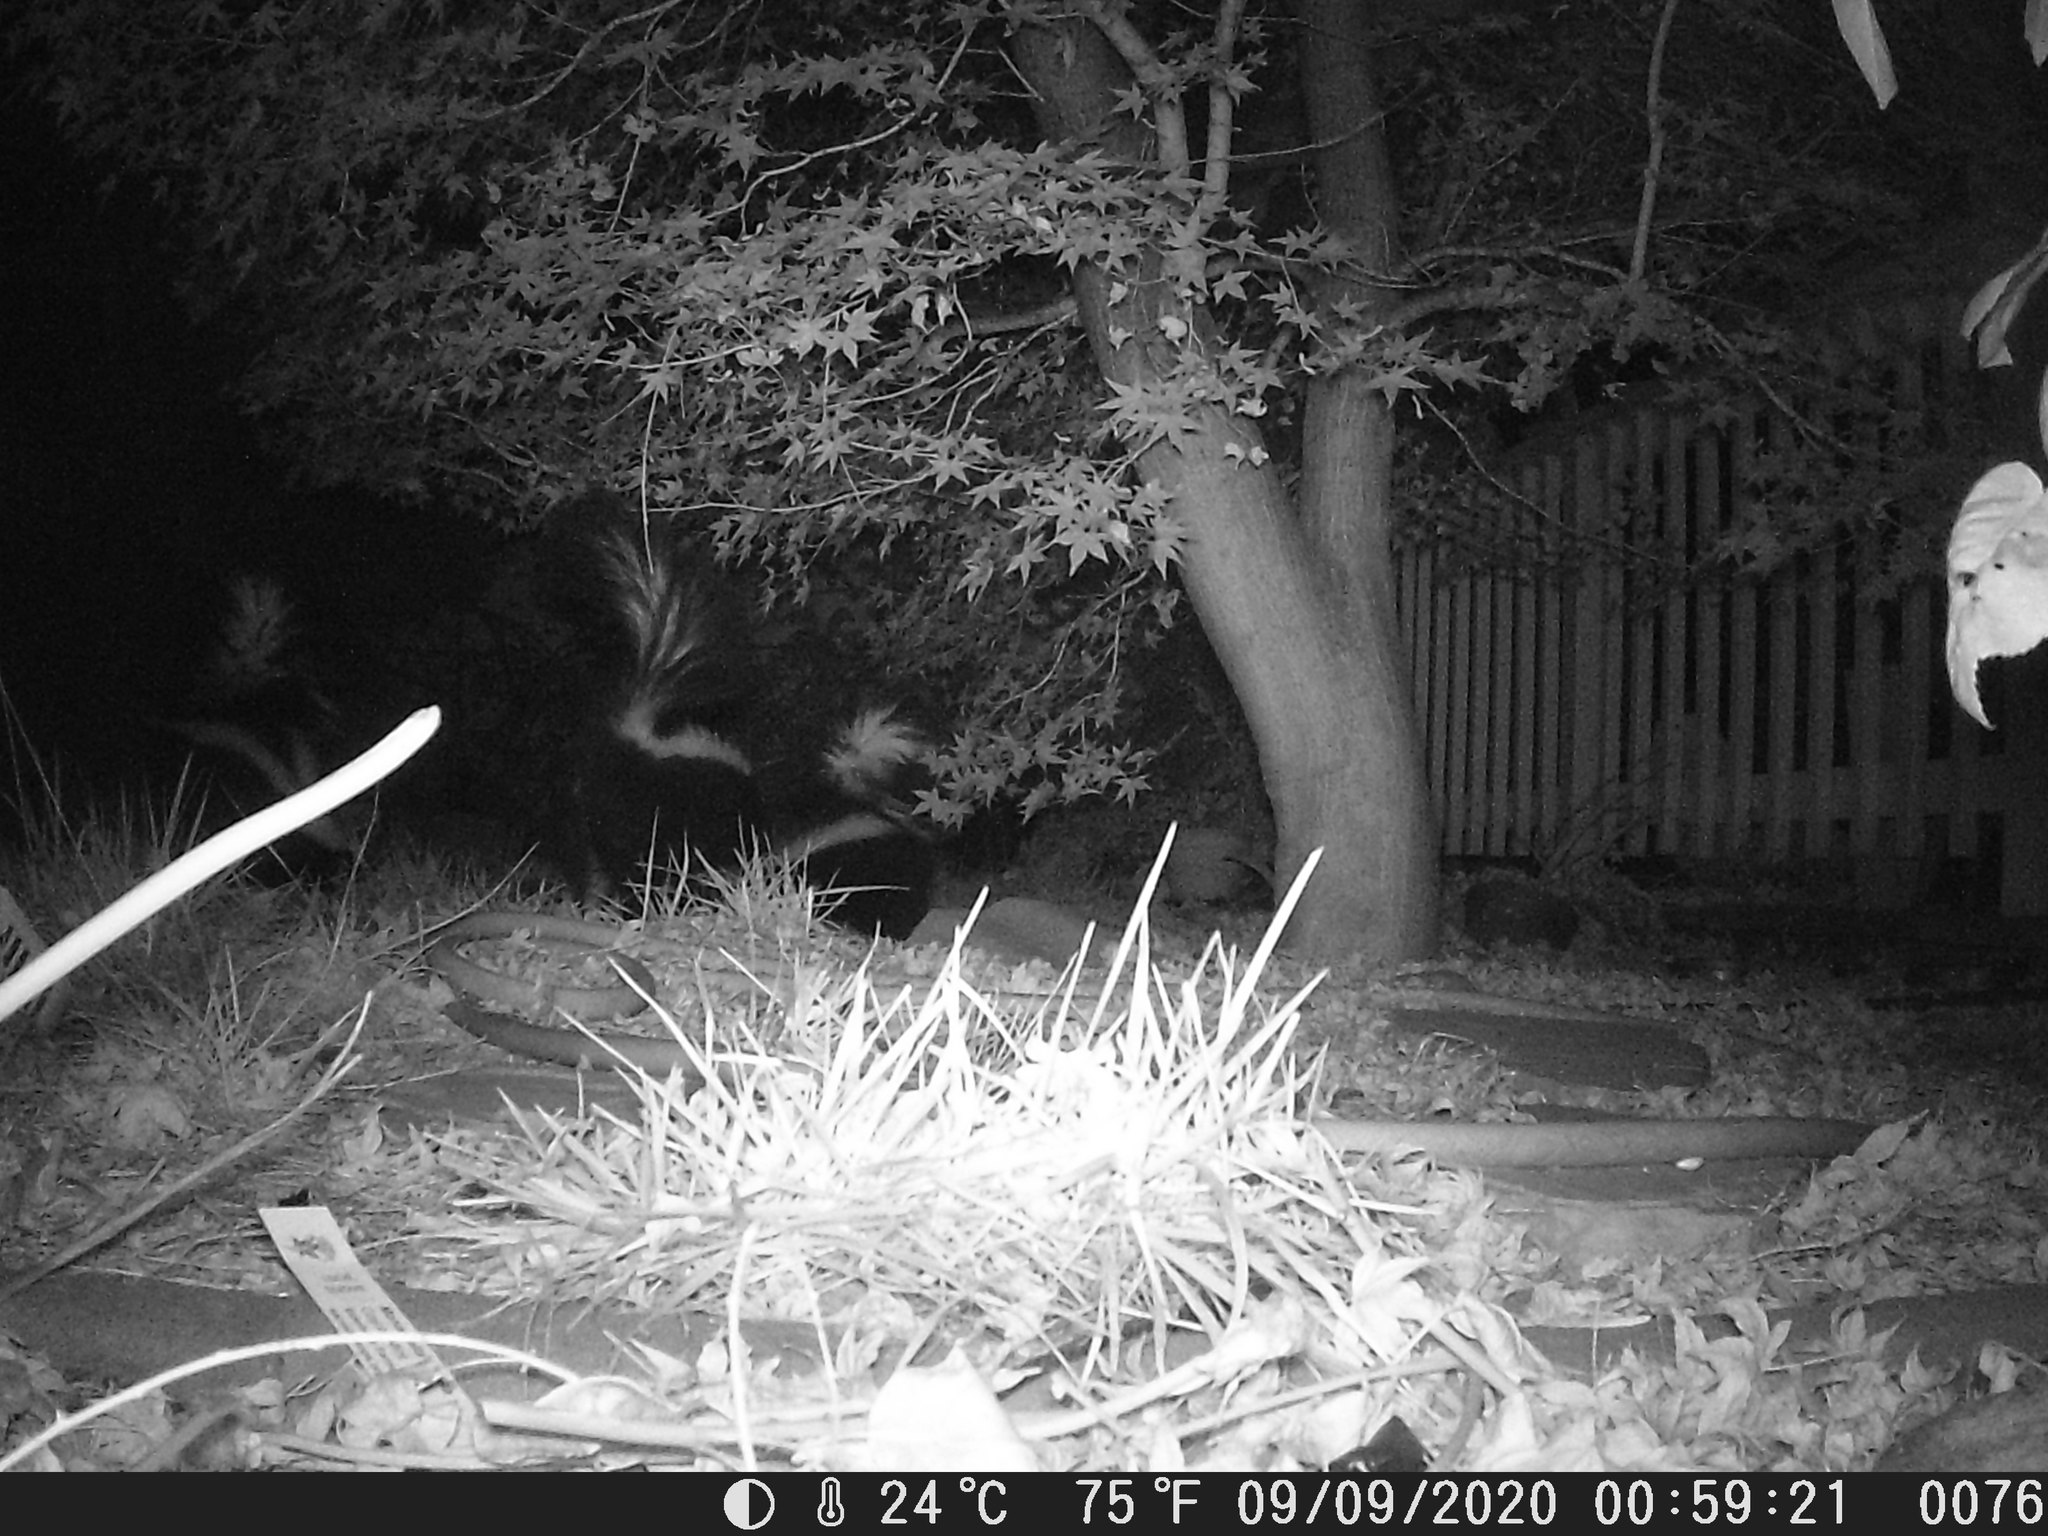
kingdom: Animalia
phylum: Chordata
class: Mammalia
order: Carnivora
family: Mephitidae
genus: Mephitis
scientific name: Mephitis mephitis
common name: Striped skunk
